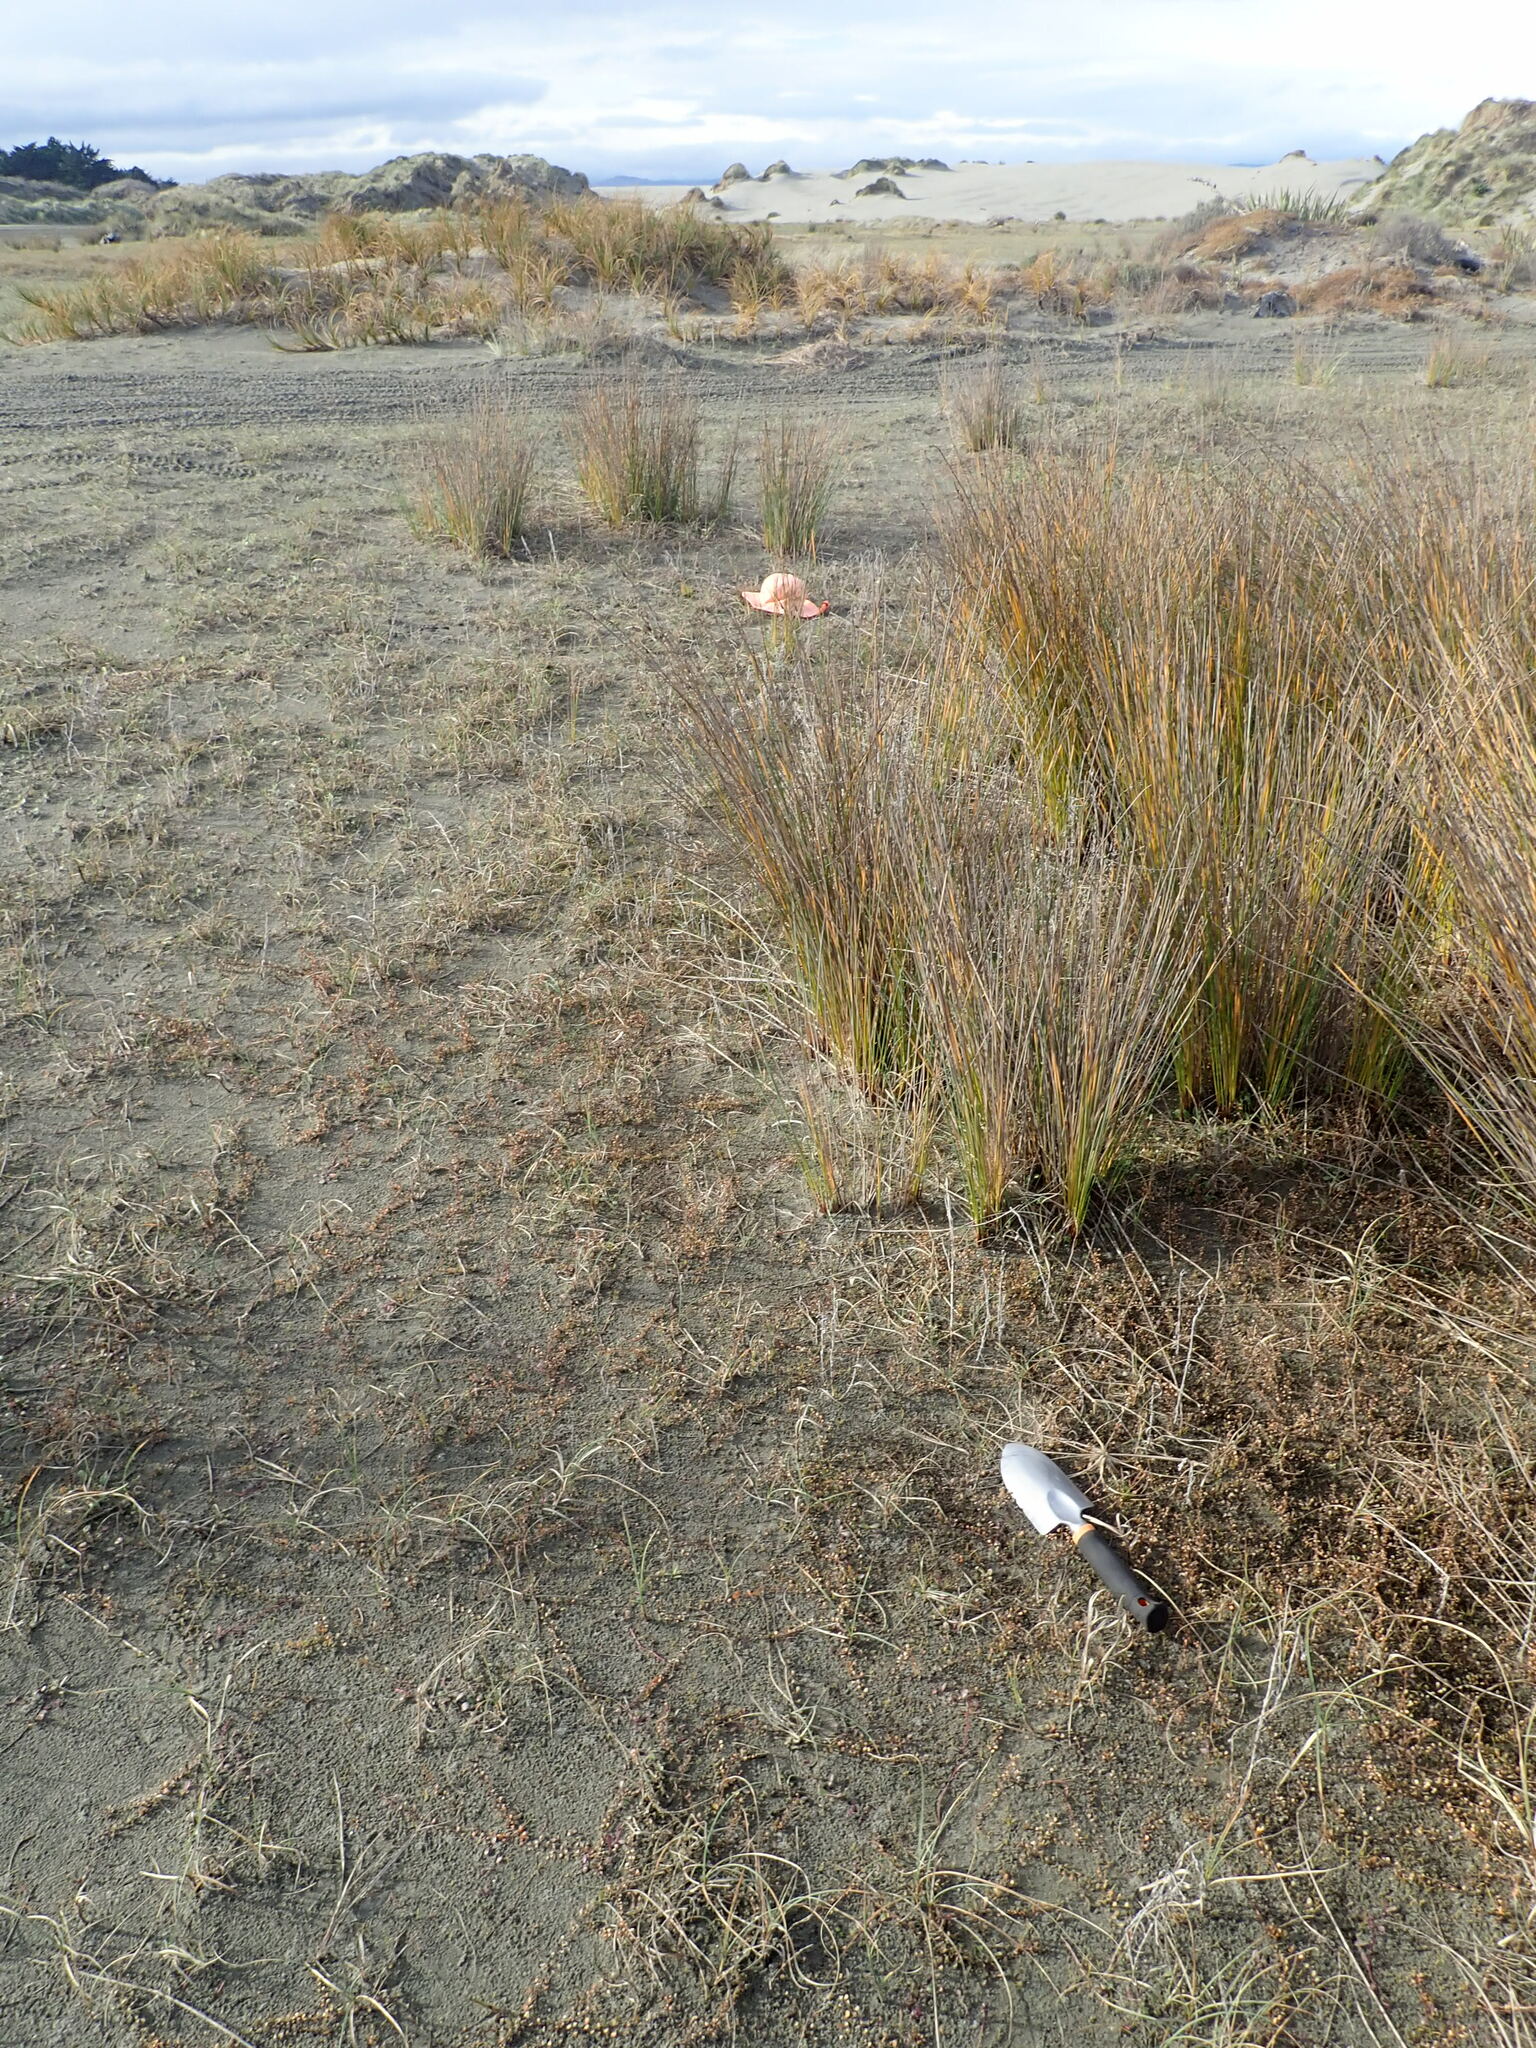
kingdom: Plantae
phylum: Tracheophyta
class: Liliopsida
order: Poales
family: Juncaceae
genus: Juncus
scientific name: Juncus caespiticius
